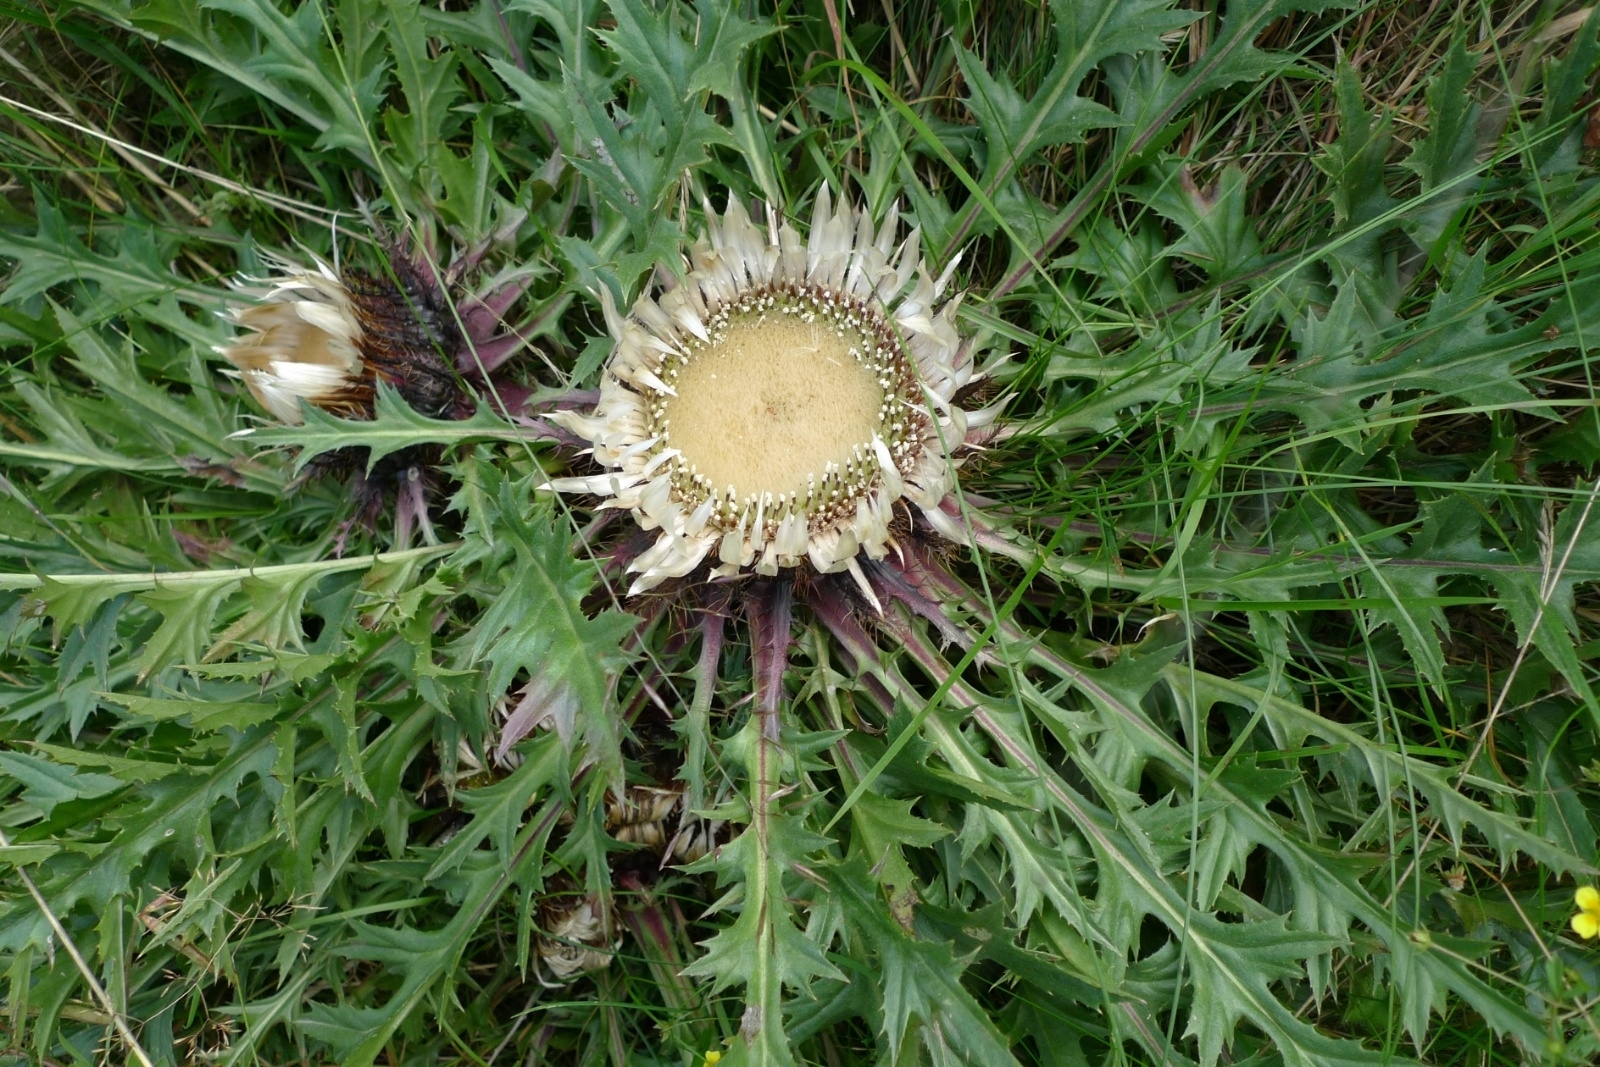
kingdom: Plantae
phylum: Tracheophyta
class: Magnoliopsida
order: Asterales
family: Asteraceae
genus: Carlina
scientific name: Carlina acaulis
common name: Stemless carline thistle
